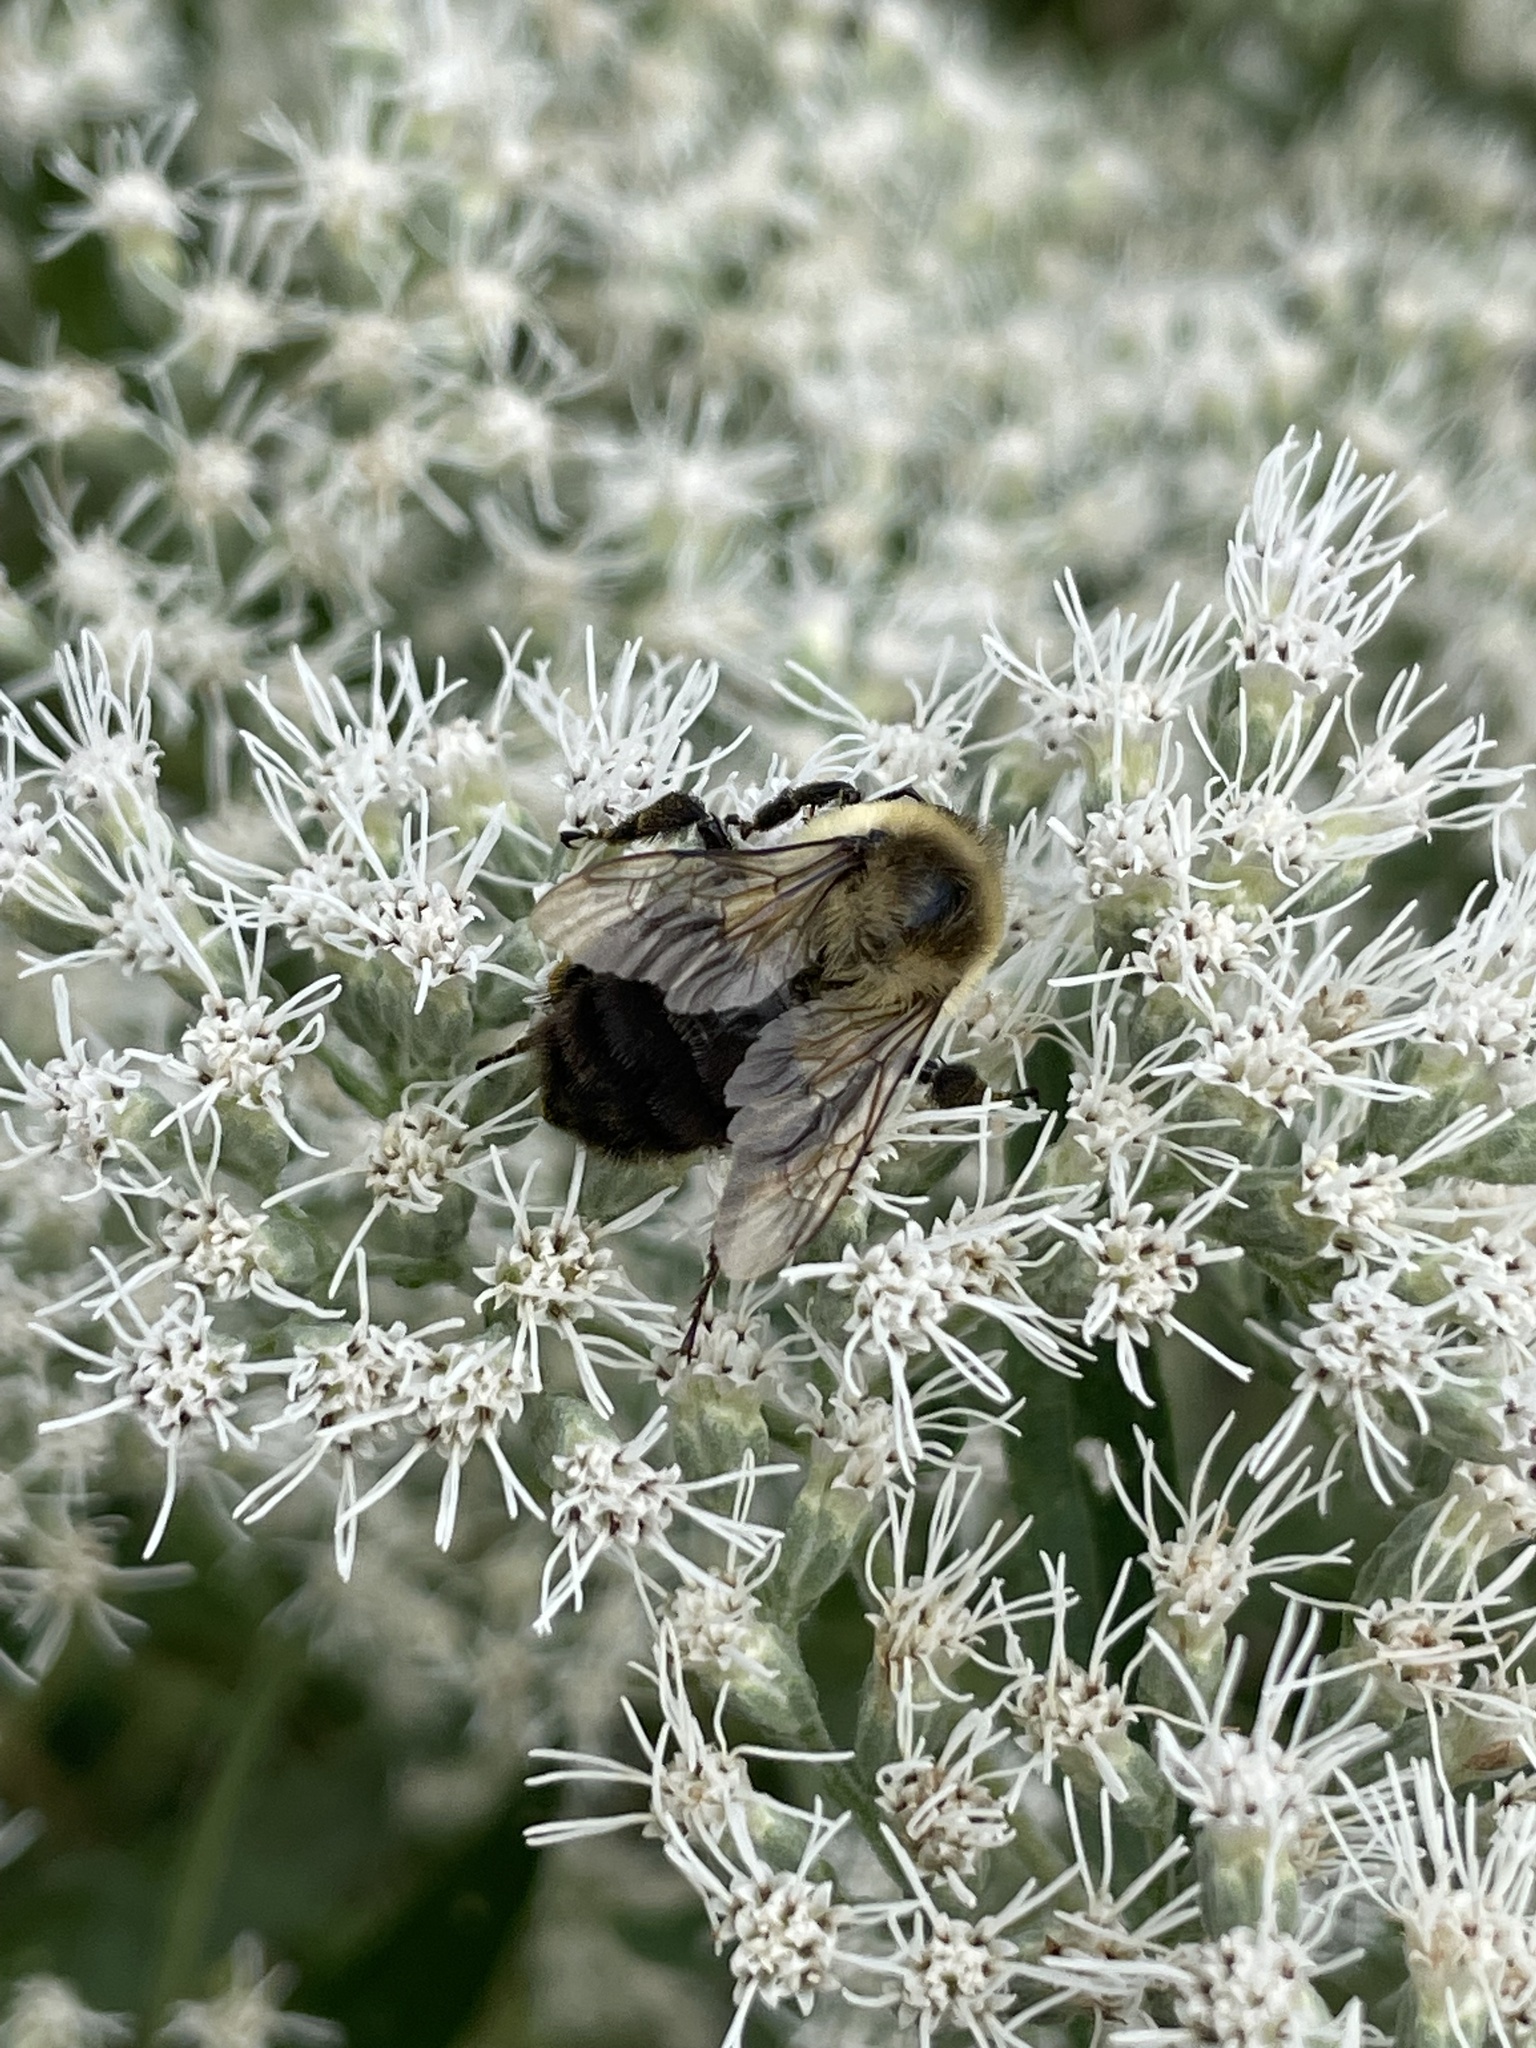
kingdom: Animalia
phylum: Arthropoda
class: Insecta
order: Hymenoptera
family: Apidae
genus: Bombus
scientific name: Bombus impatiens
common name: Common eastern bumble bee
